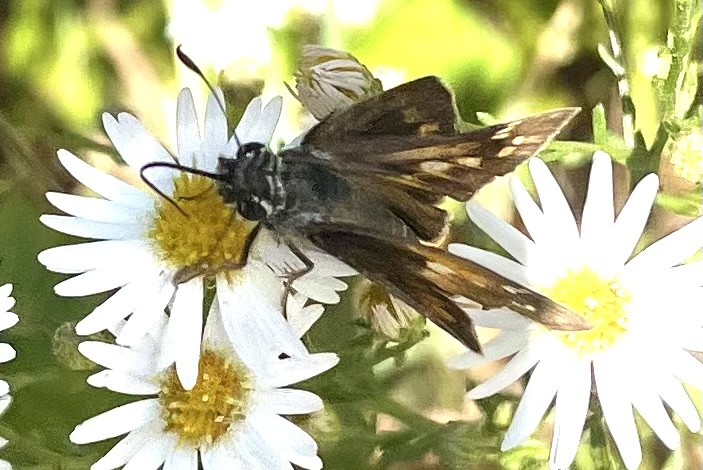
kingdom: Animalia
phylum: Arthropoda
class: Insecta
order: Lepidoptera
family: Hesperiidae
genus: Atalopedes
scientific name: Atalopedes
